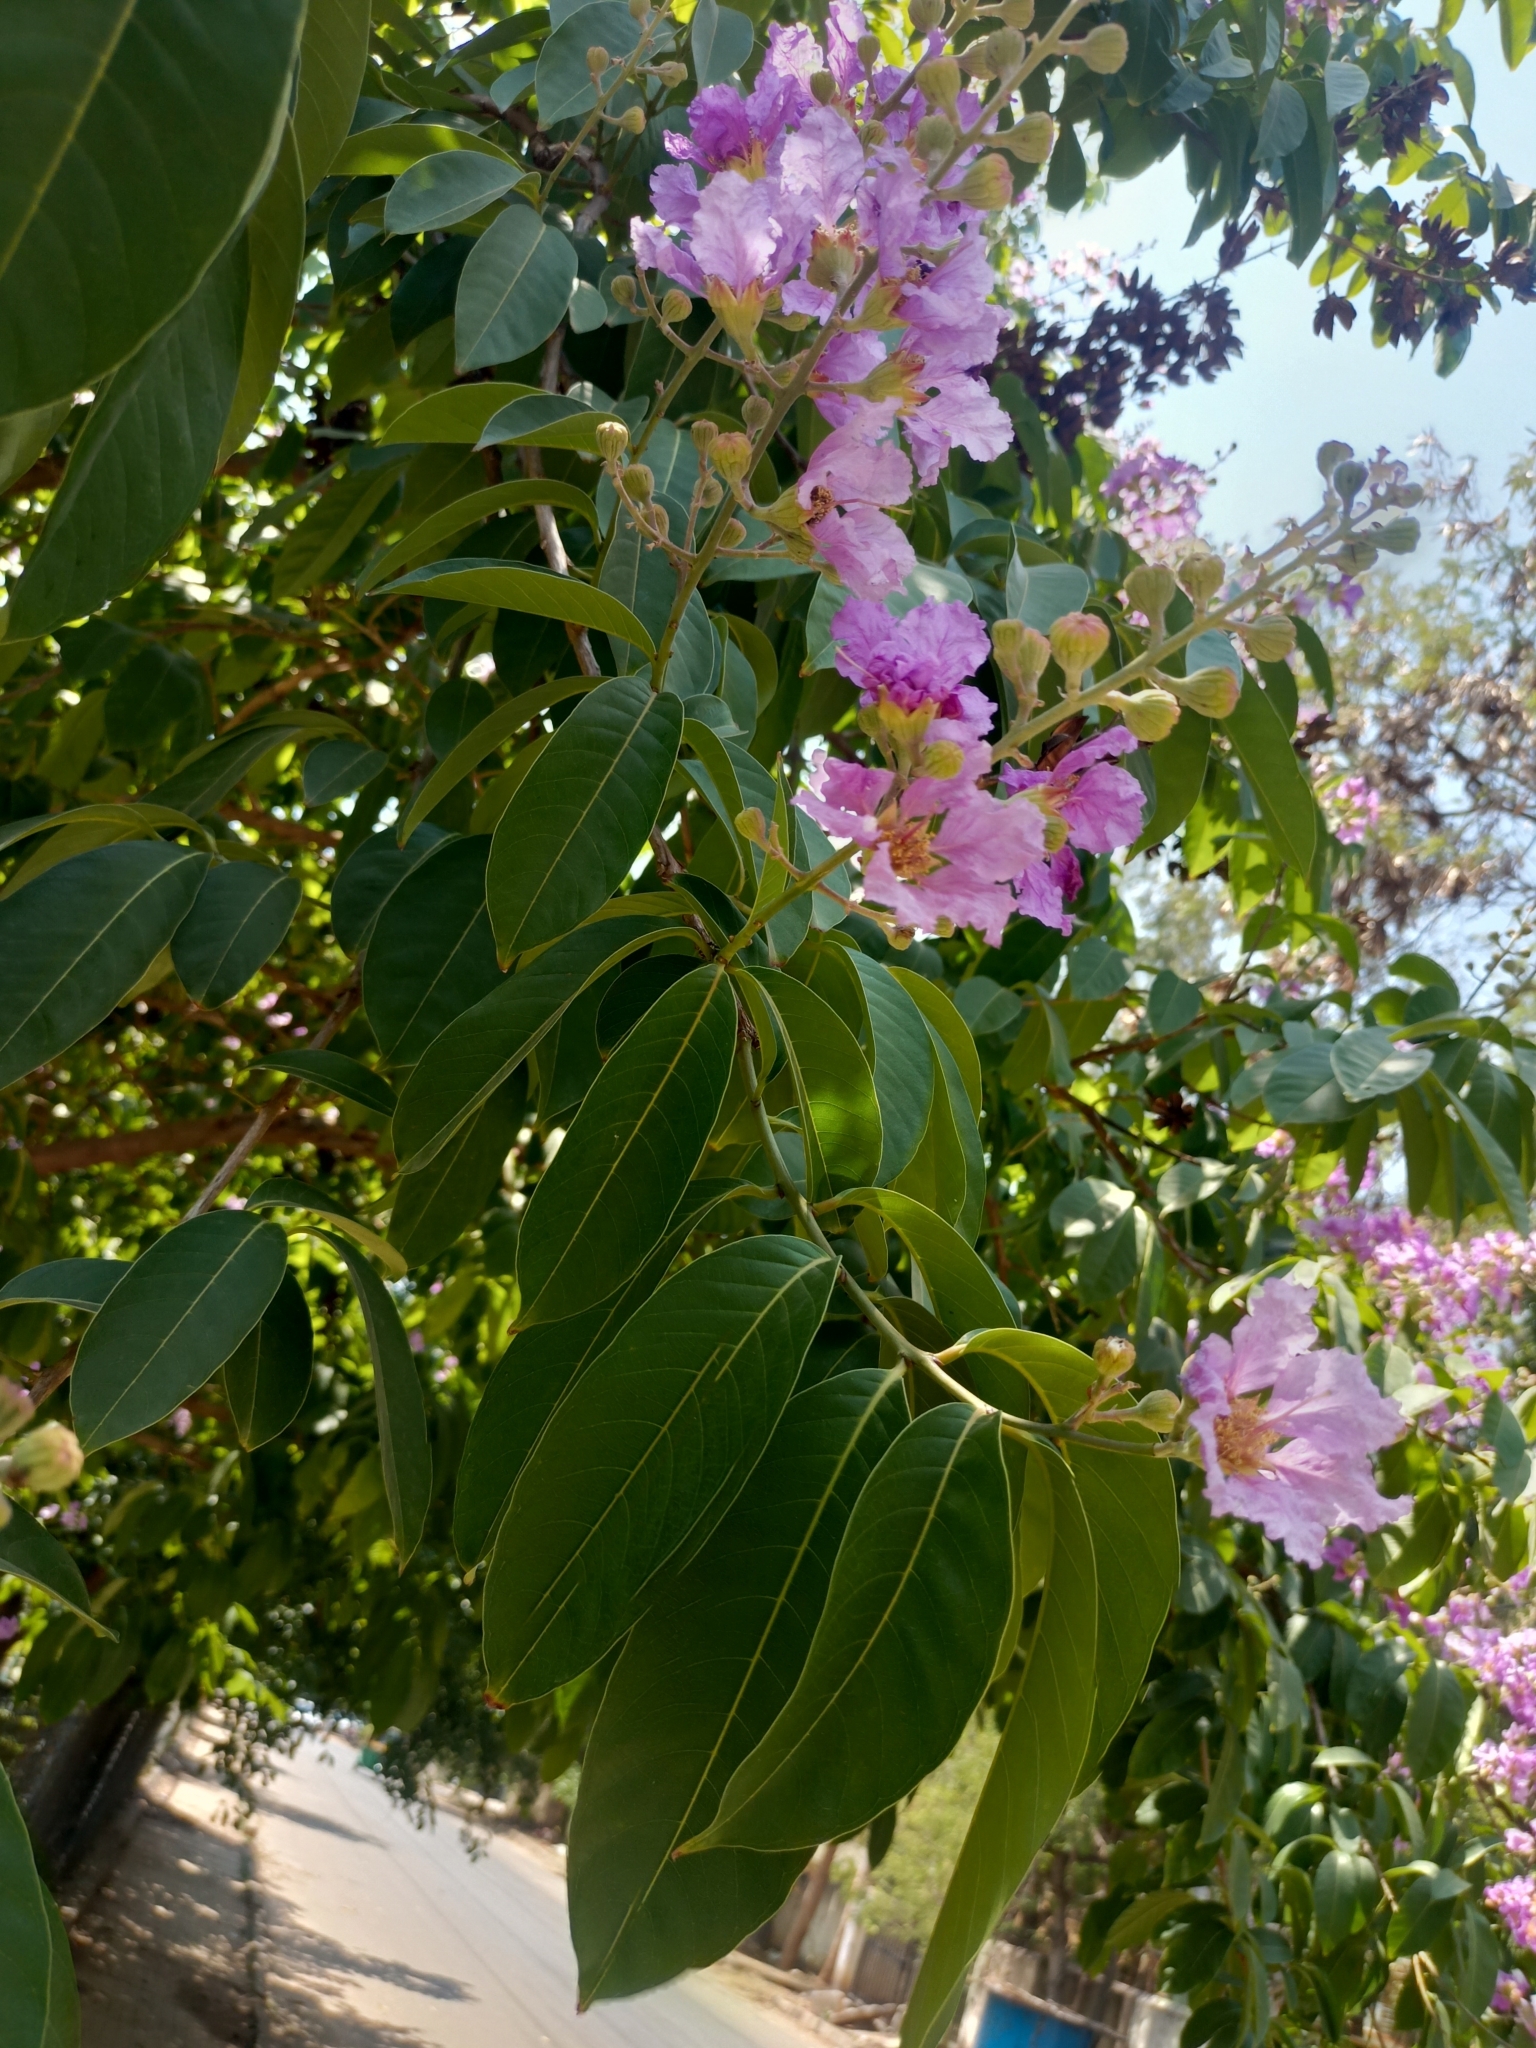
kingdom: Plantae
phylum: Tracheophyta
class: Magnoliopsida
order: Myrtales
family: Lythraceae
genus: Lagerstroemia
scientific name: Lagerstroemia speciosa
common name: Queen's crape-myrtle
